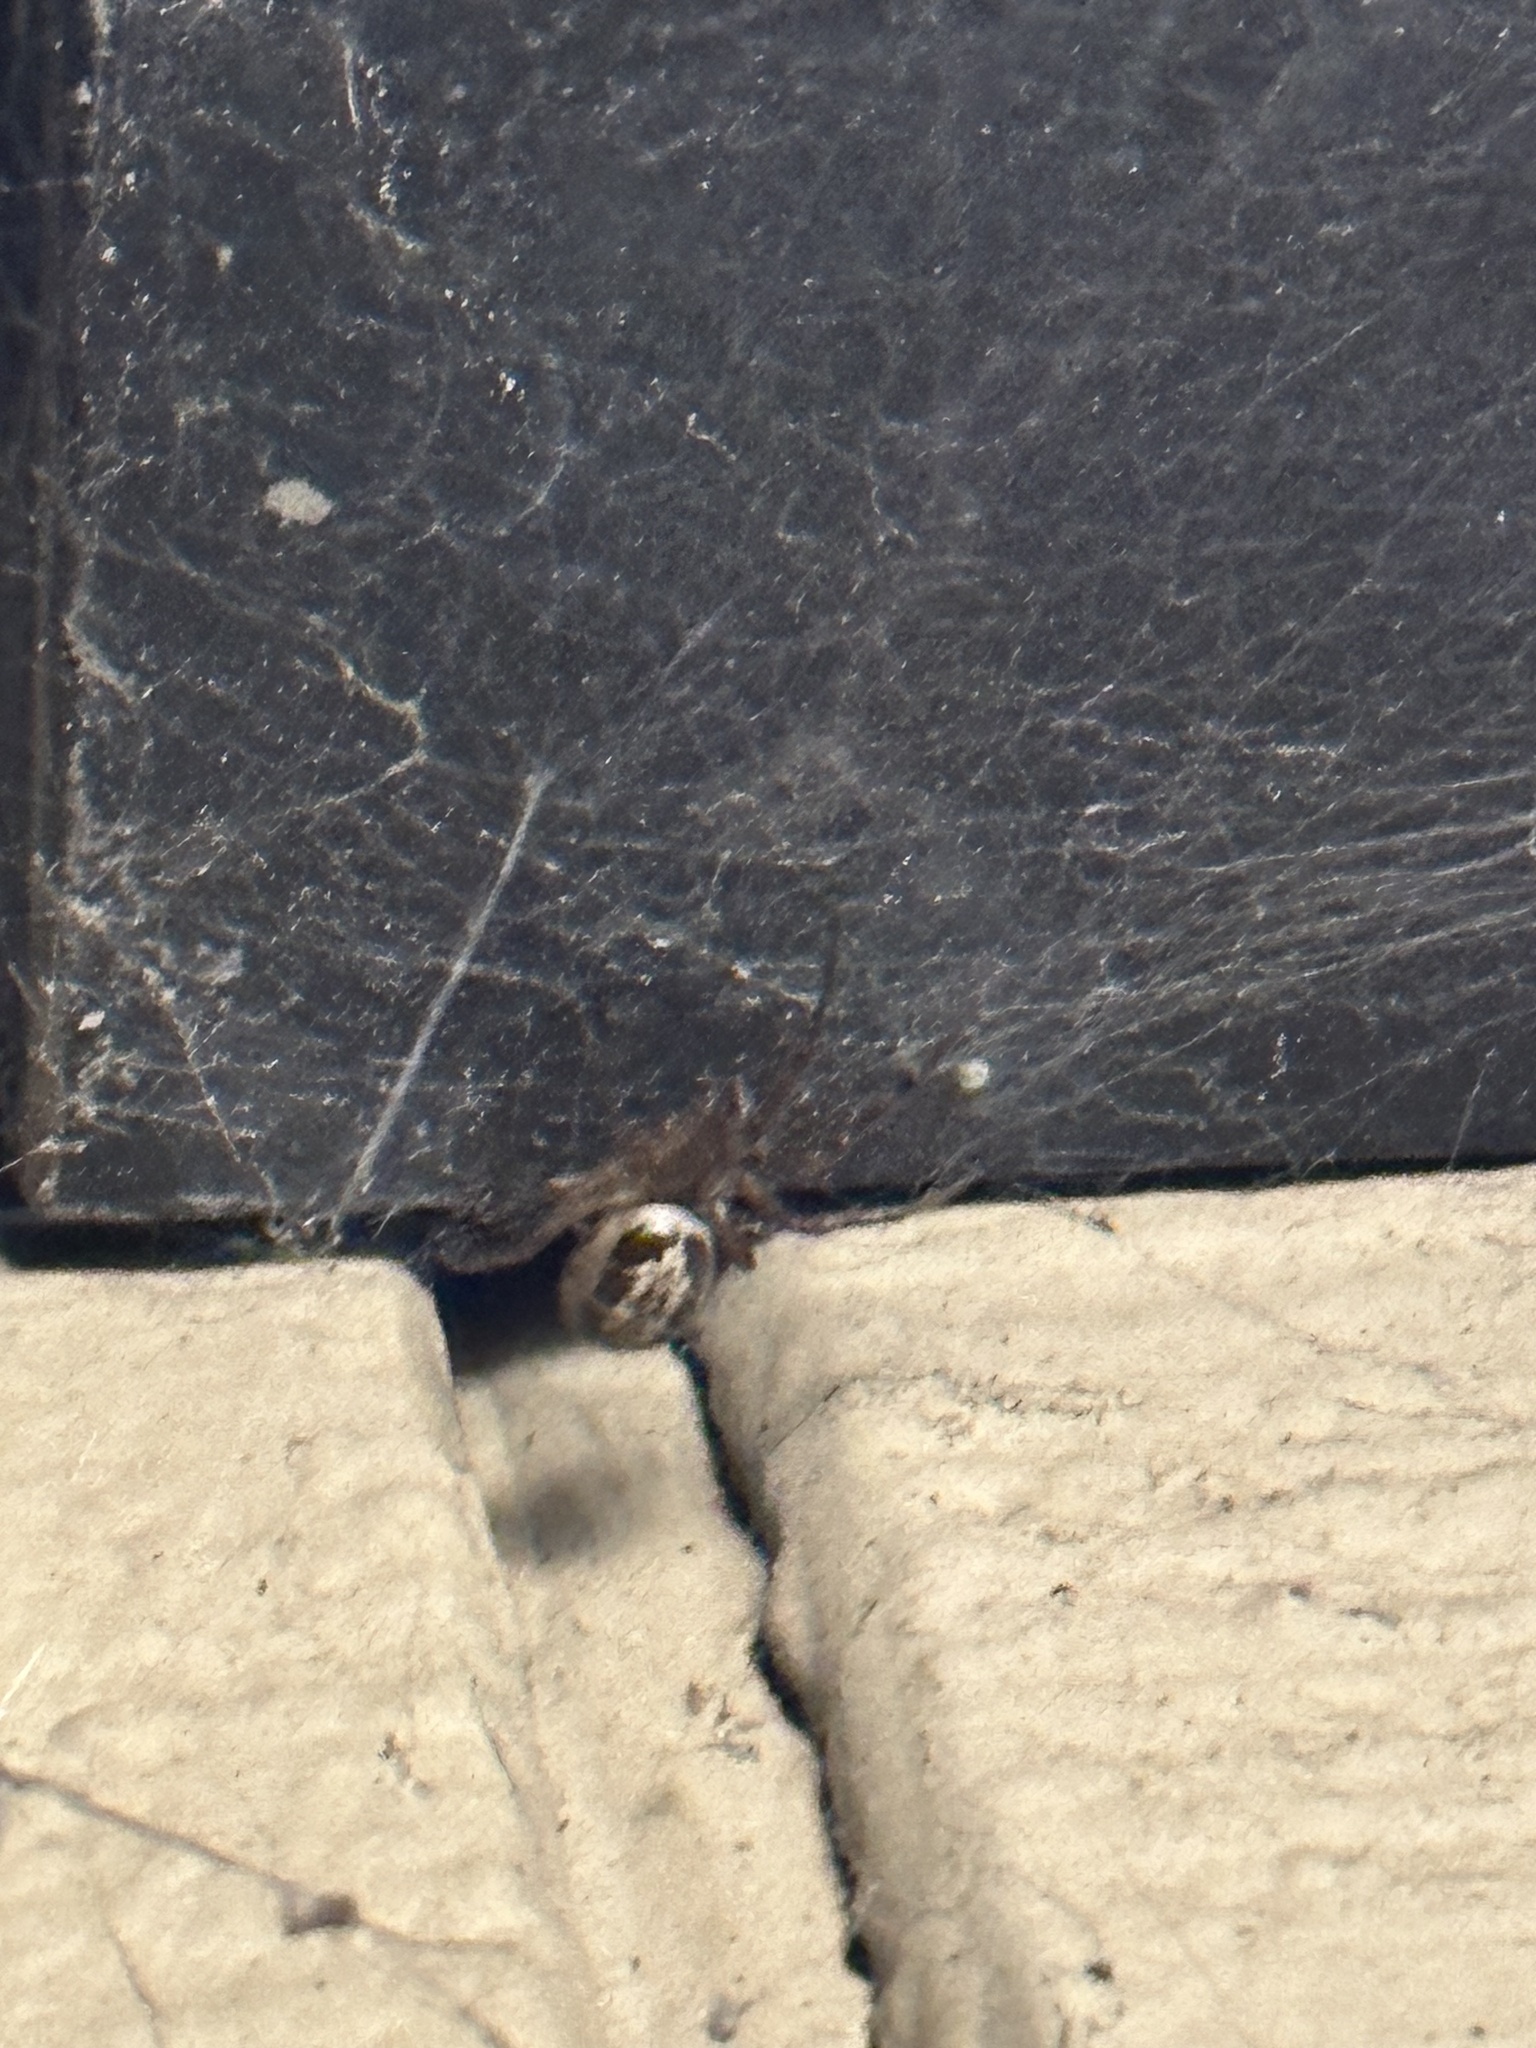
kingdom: Animalia
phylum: Arthropoda
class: Arachnida
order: Araneae
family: Theridiidae
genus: Steatoda
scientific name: Steatoda nobilis
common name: Cobweb weaver
